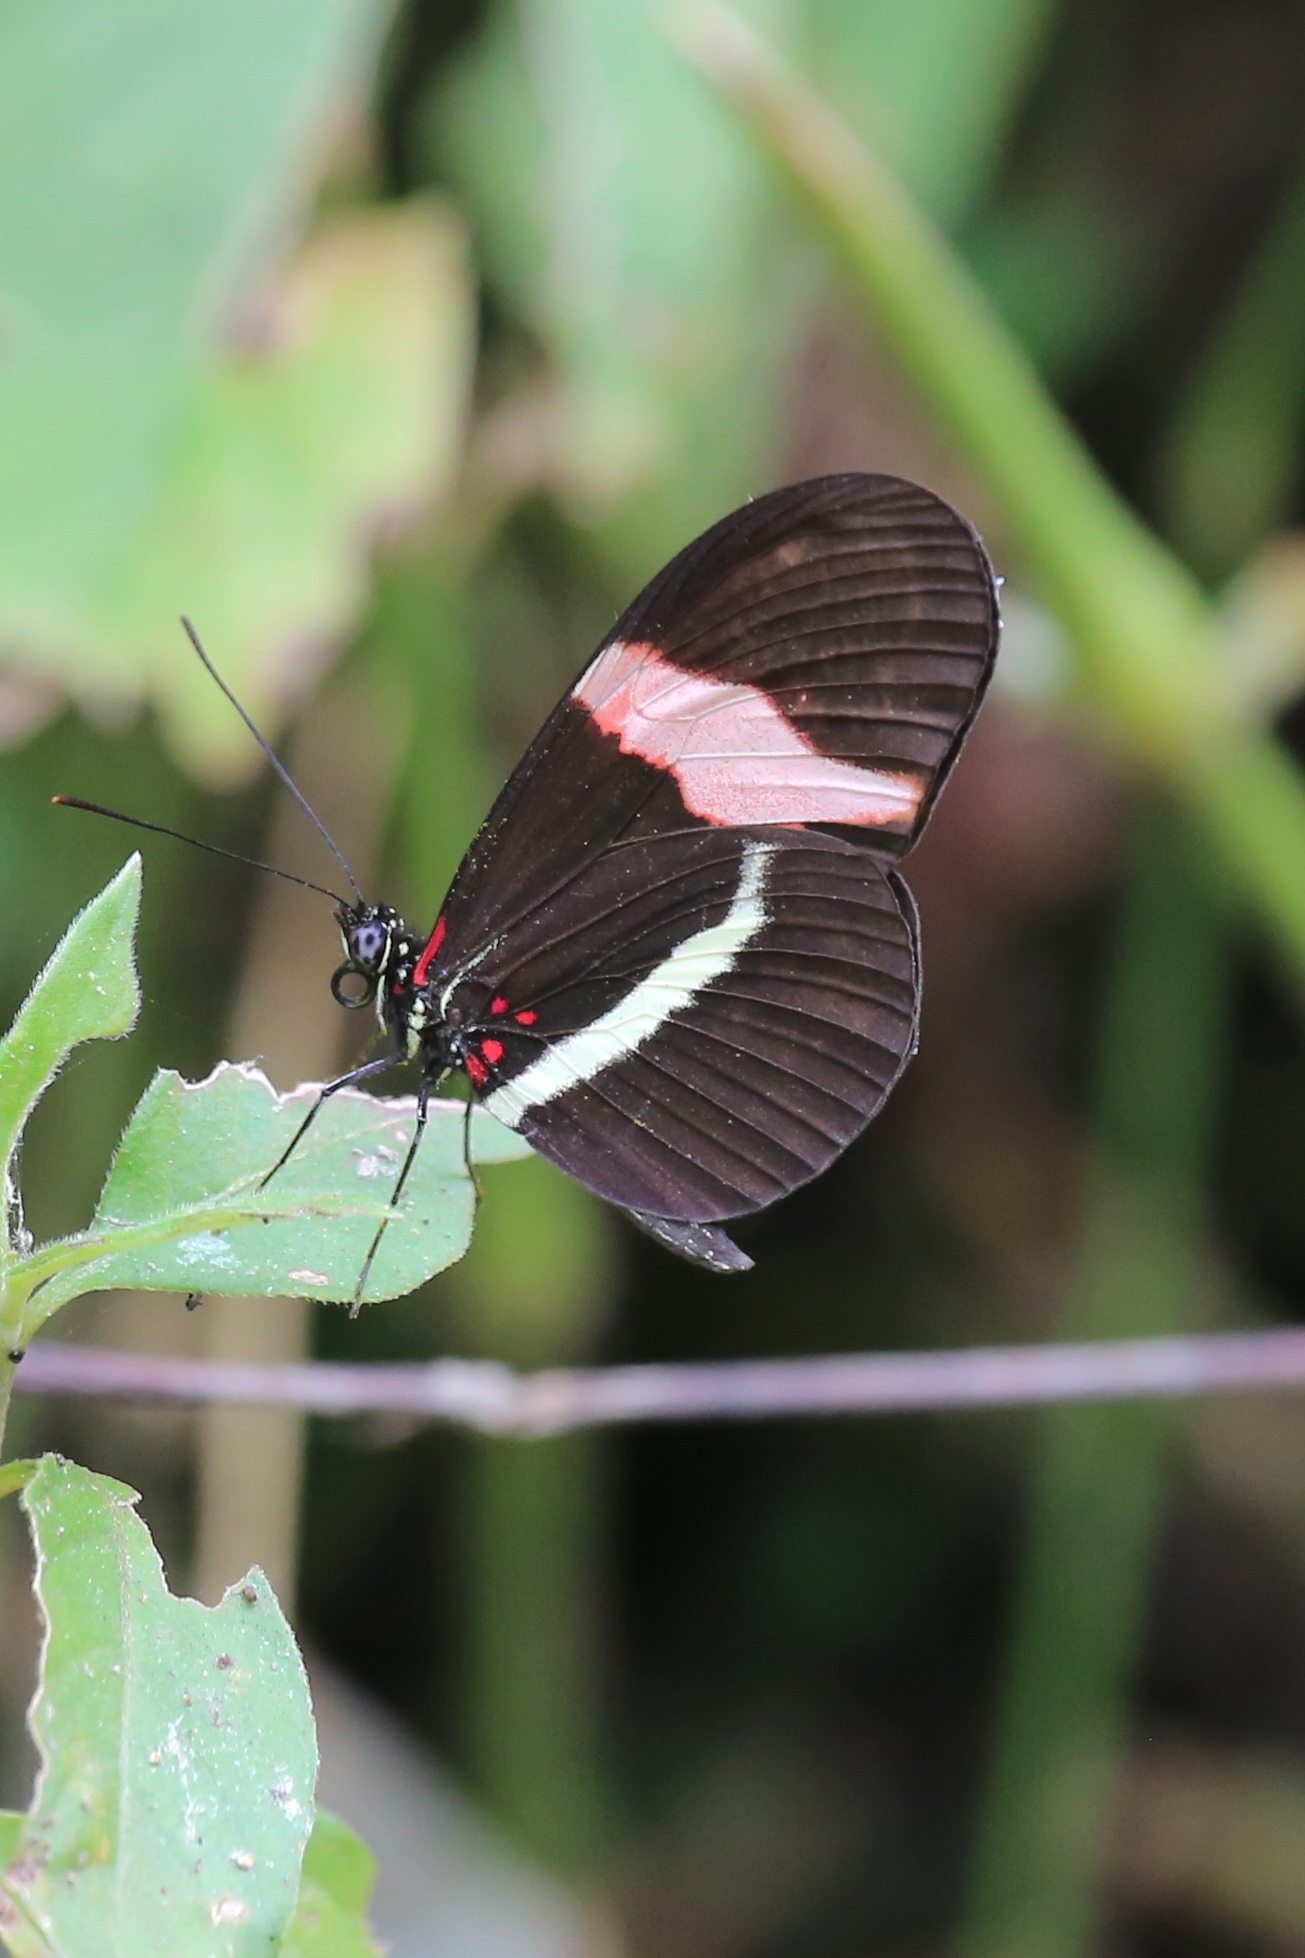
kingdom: Animalia
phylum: Arthropoda
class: Insecta
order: Lepidoptera
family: Nymphalidae
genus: Heliconius
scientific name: Heliconius erato
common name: Common patch longwing
